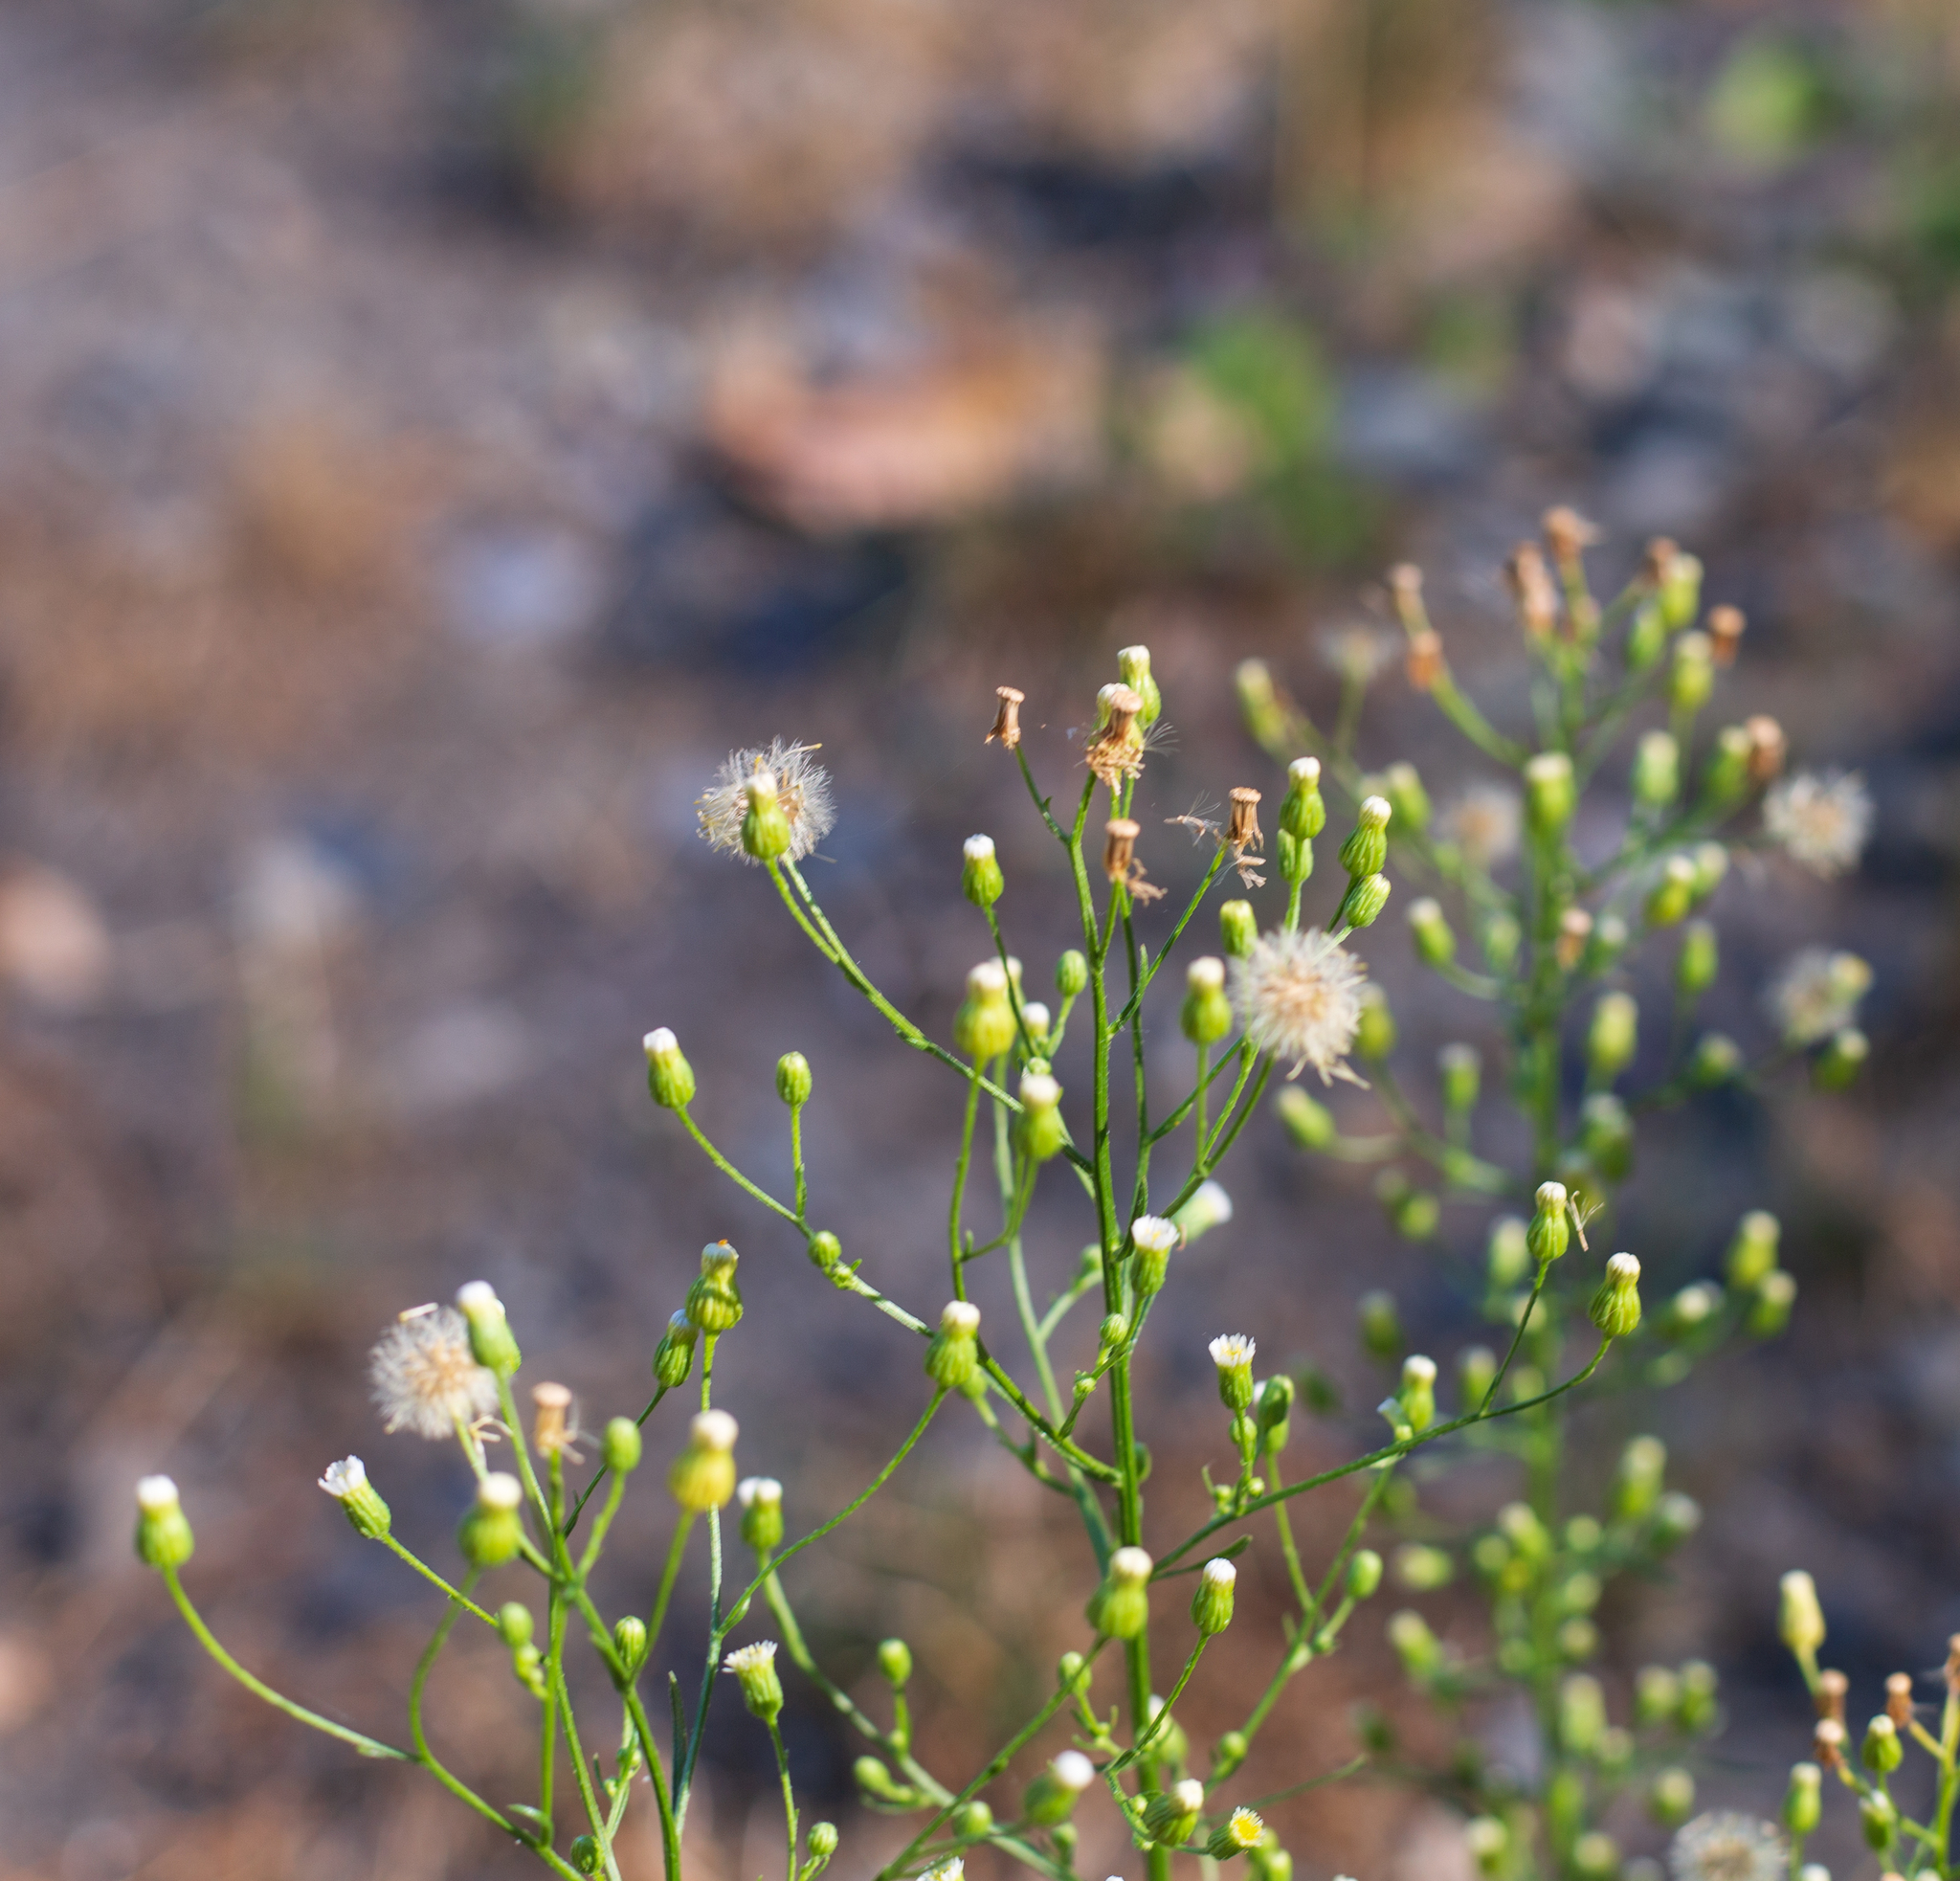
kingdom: Plantae
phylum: Tracheophyta
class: Magnoliopsida
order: Asterales
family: Asteraceae
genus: Erigeron
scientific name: Erigeron canadensis
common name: Canadian fleabane
